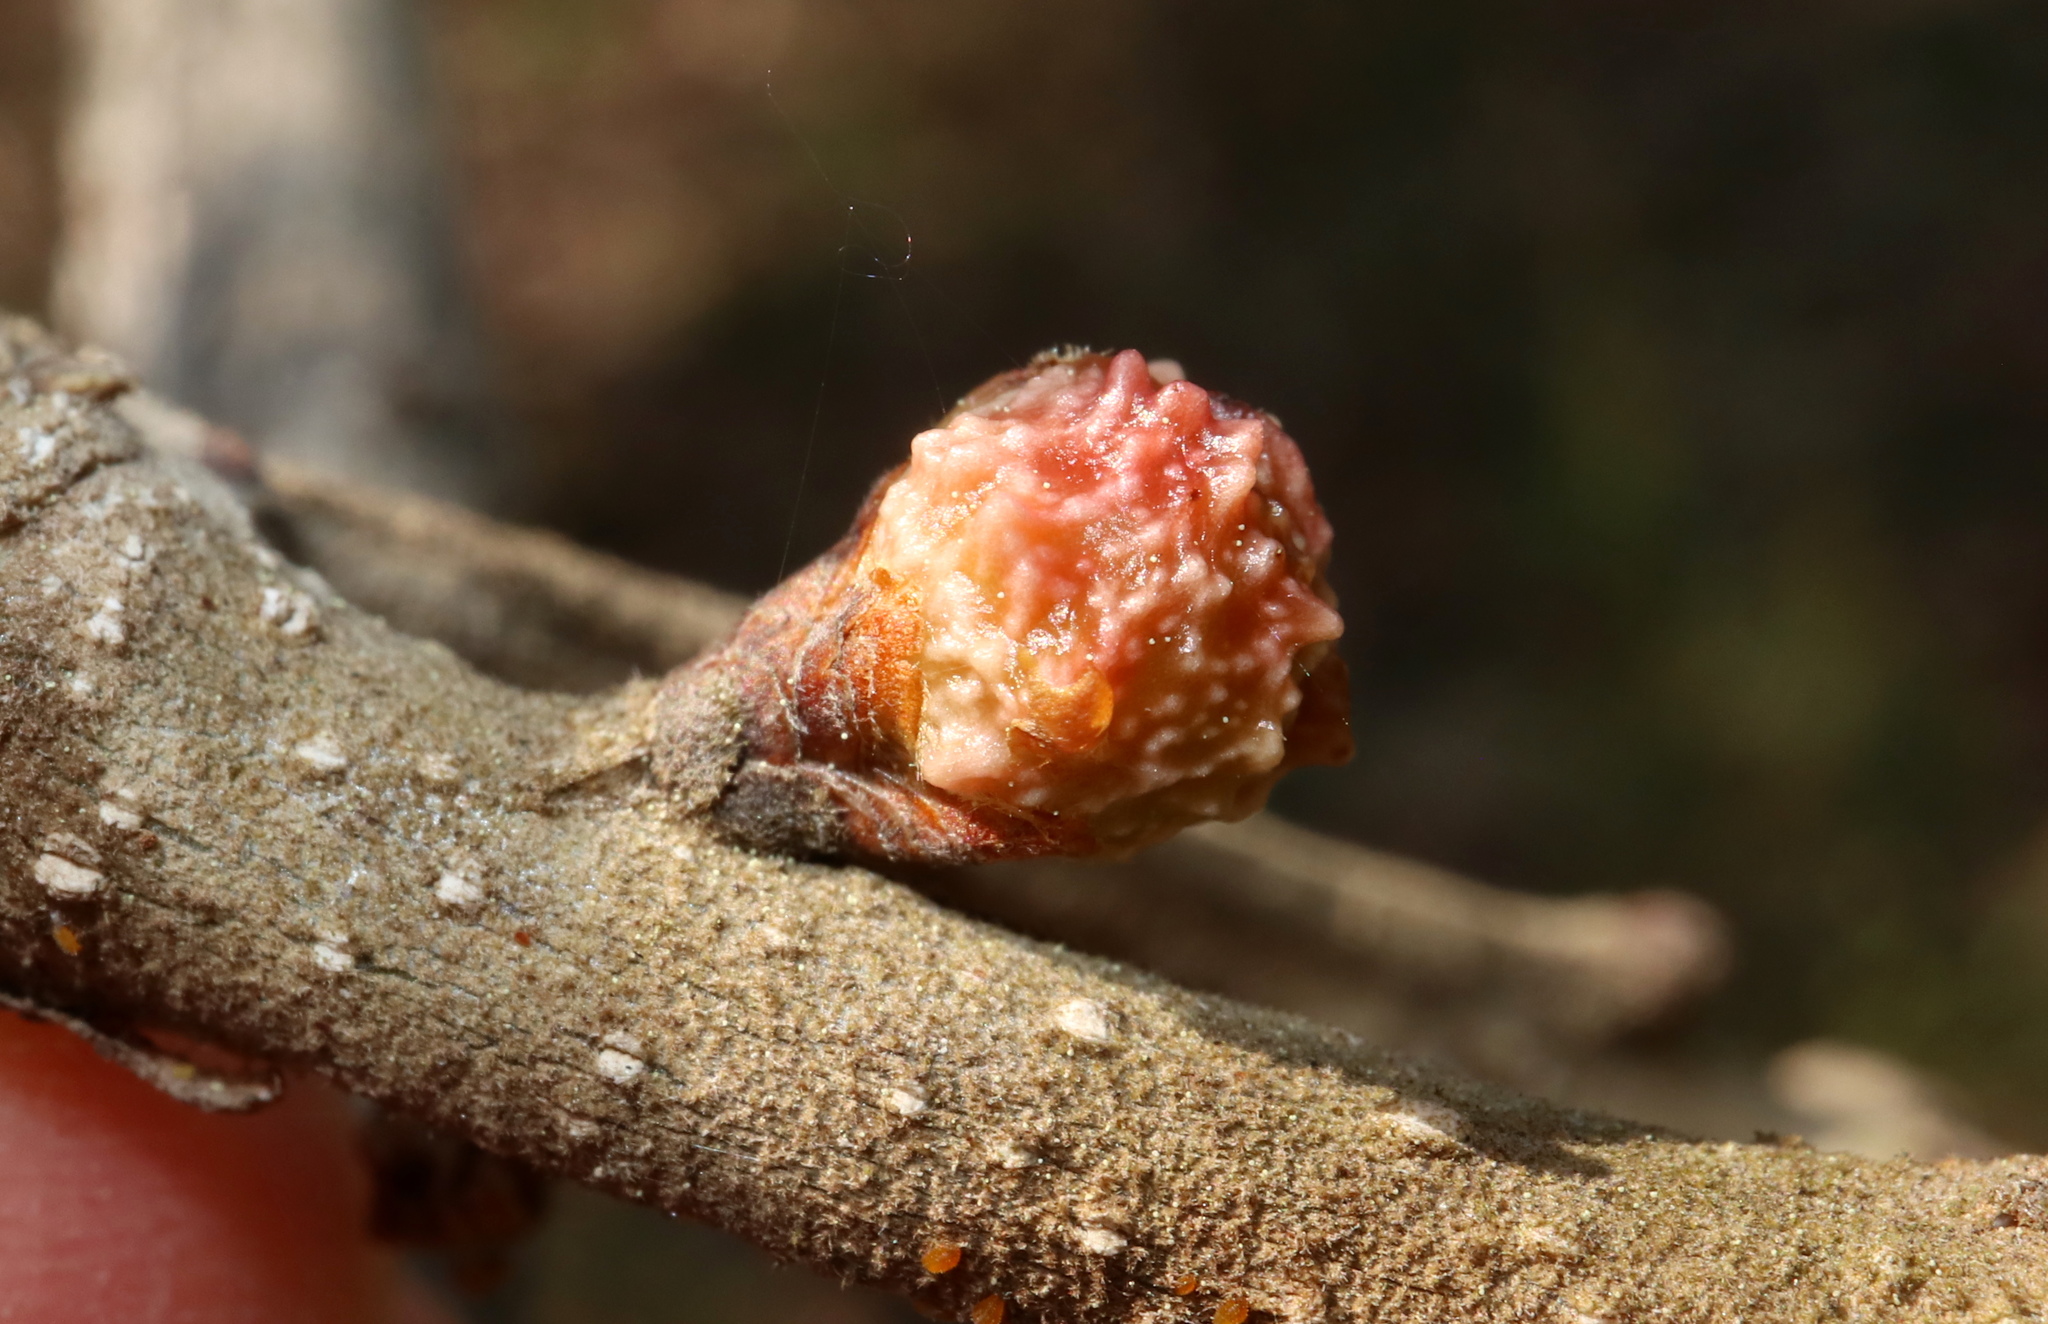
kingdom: Animalia
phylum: Arthropoda
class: Insecta
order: Hymenoptera
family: Cynipidae
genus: Andricus
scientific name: Andricus
